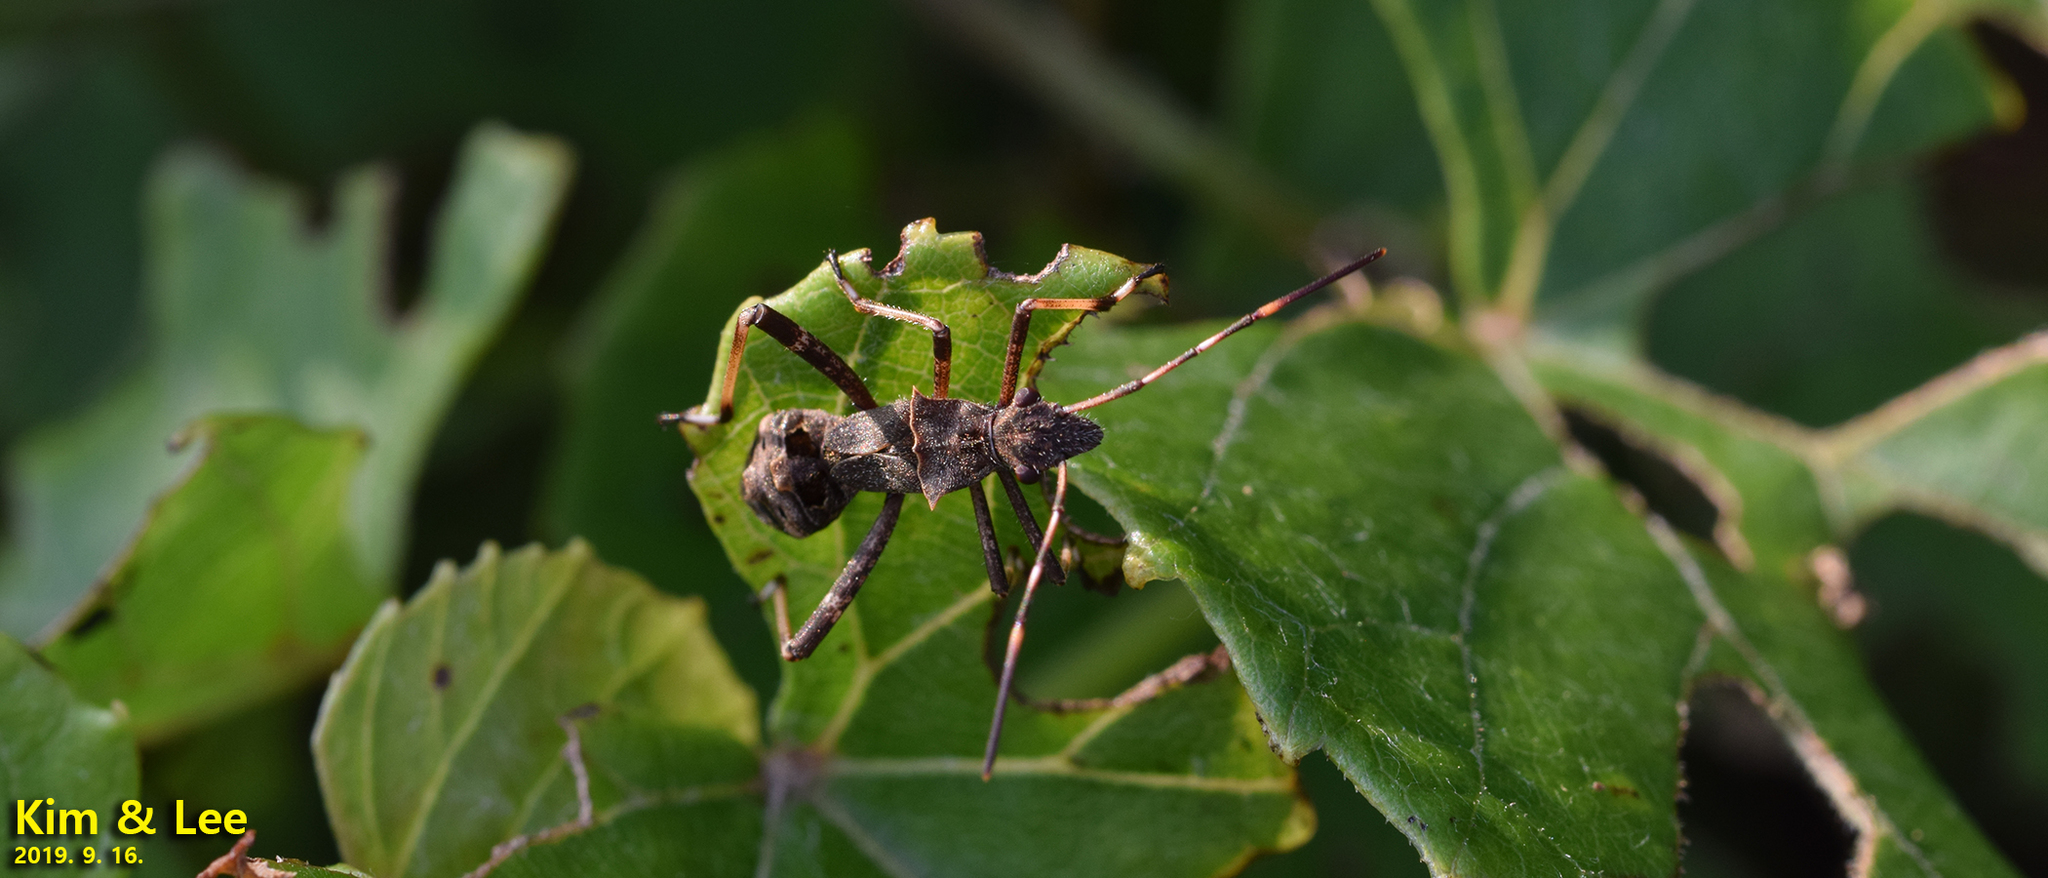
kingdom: Animalia
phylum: Arthropoda
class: Insecta
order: Hemiptera
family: Alydidae
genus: Riptortus
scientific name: Riptortus pedestris
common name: Bean bug
